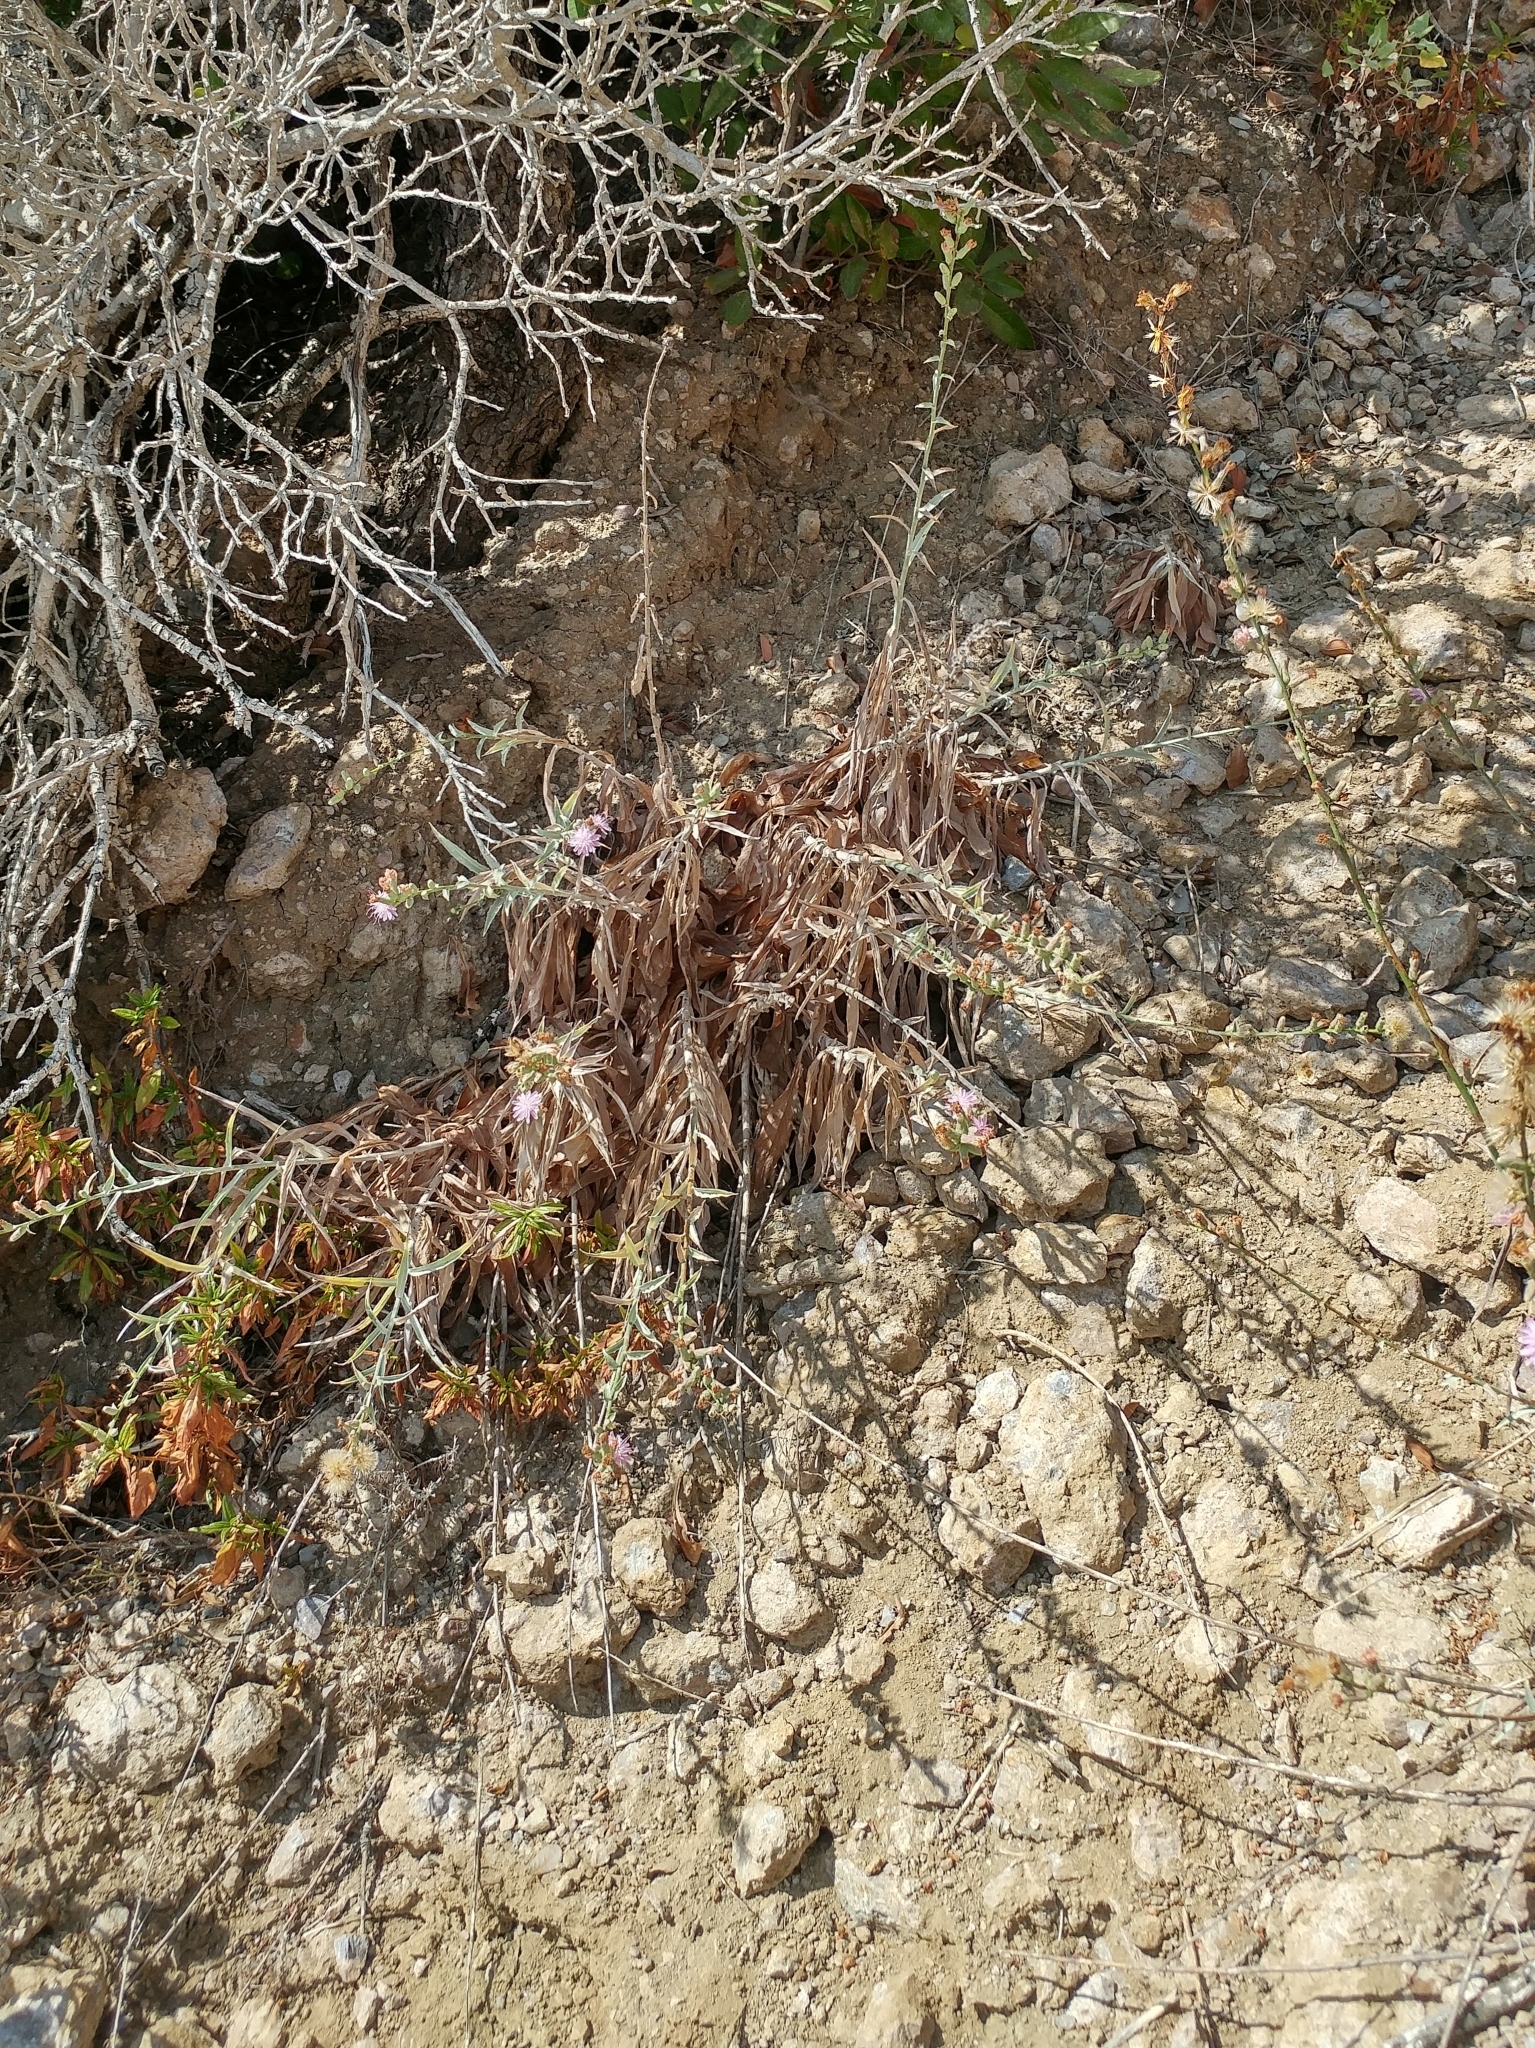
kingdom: Plantae
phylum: Tracheophyta
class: Magnoliopsida
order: Asterales
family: Asteraceae
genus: Stephanomeria
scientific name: Stephanomeria cichoriacea
